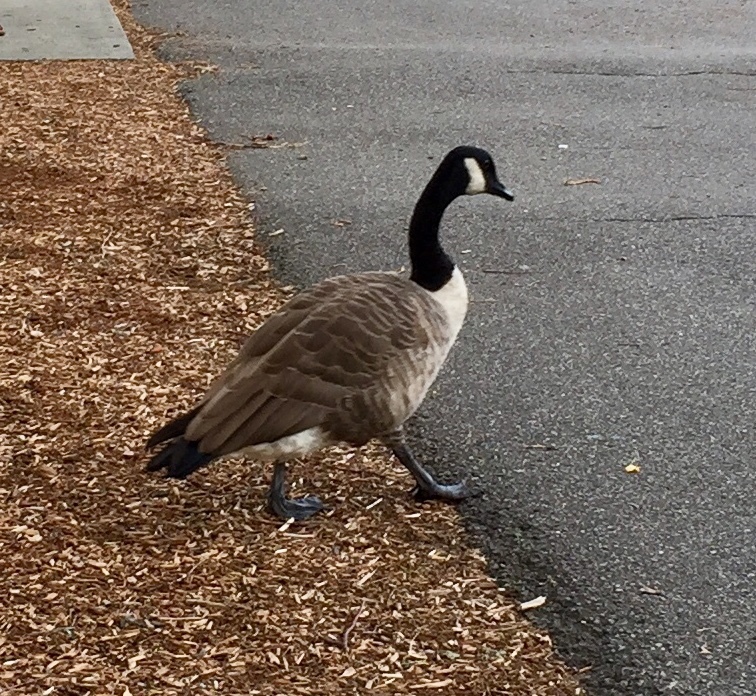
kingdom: Animalia
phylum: Chordata
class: Aves
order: Anseriformes
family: Anatidae
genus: Branta
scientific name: Branta canadensis
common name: Canada goose
